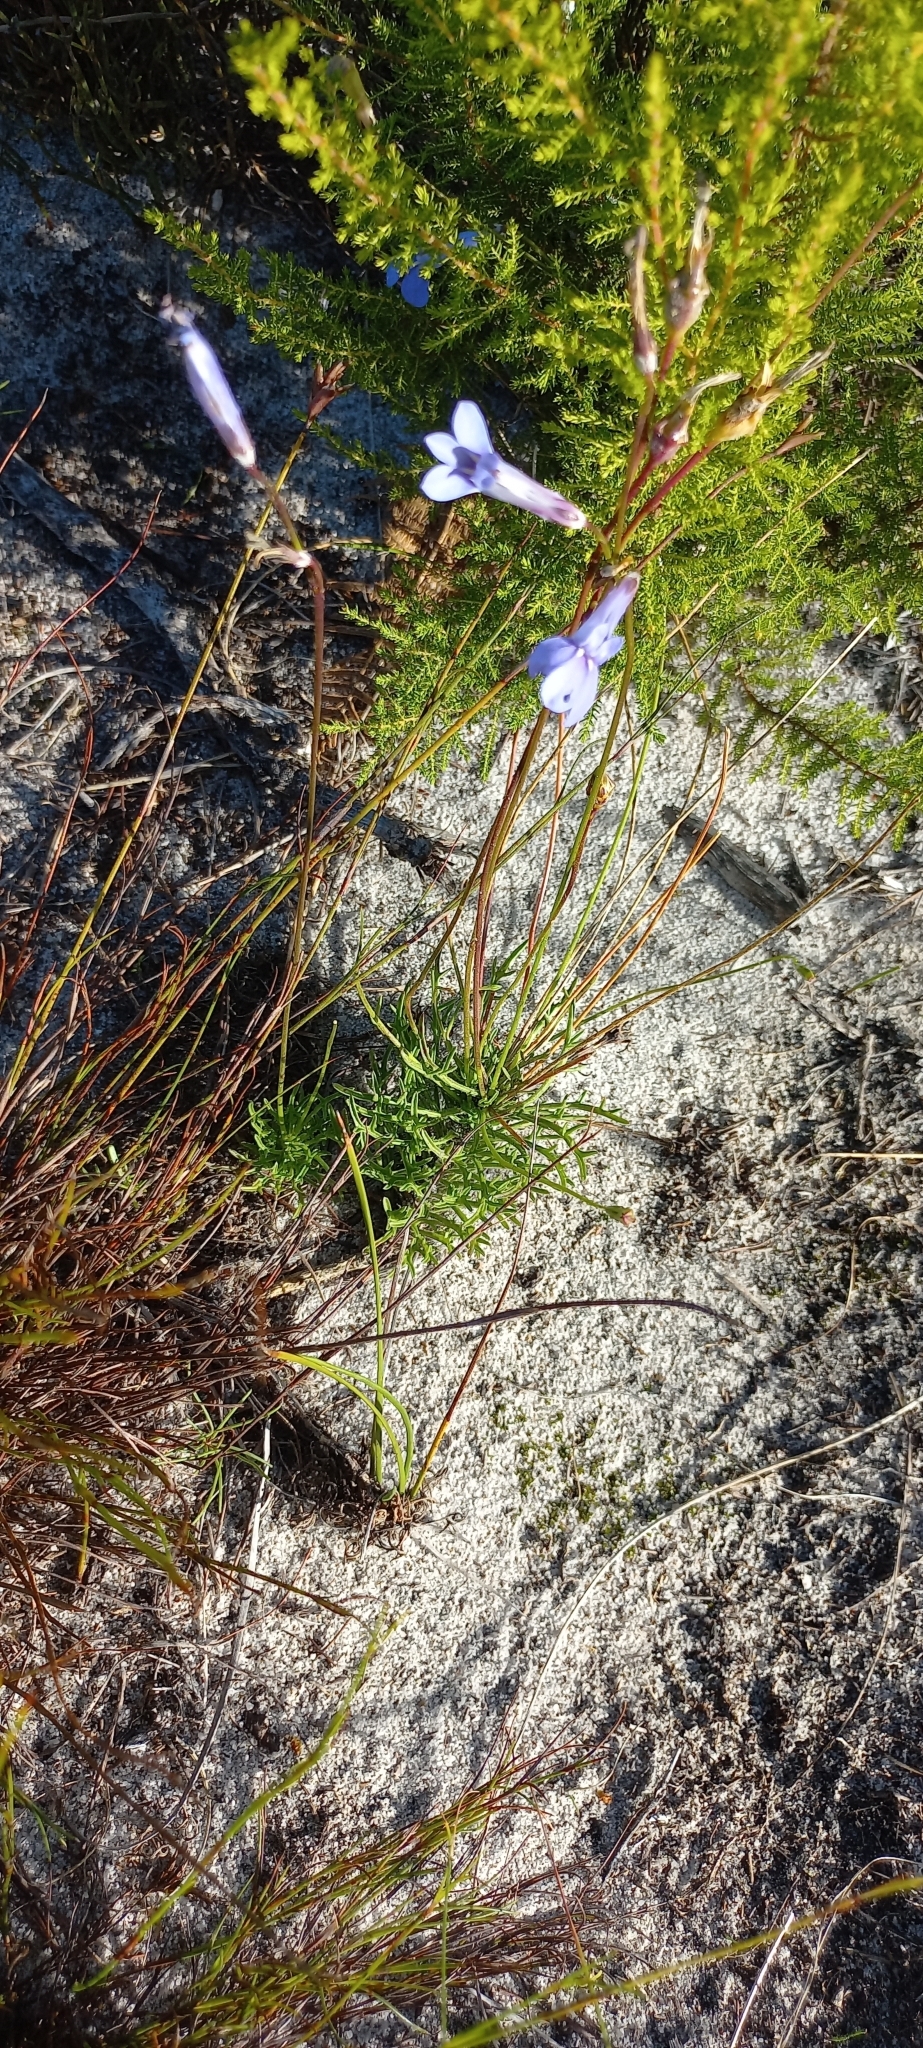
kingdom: Plantae
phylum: Tracheophyta
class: Magnoliopsida
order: Asterales
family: Campanulaceae
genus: Lobelia
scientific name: Lobelia coronopifolia
